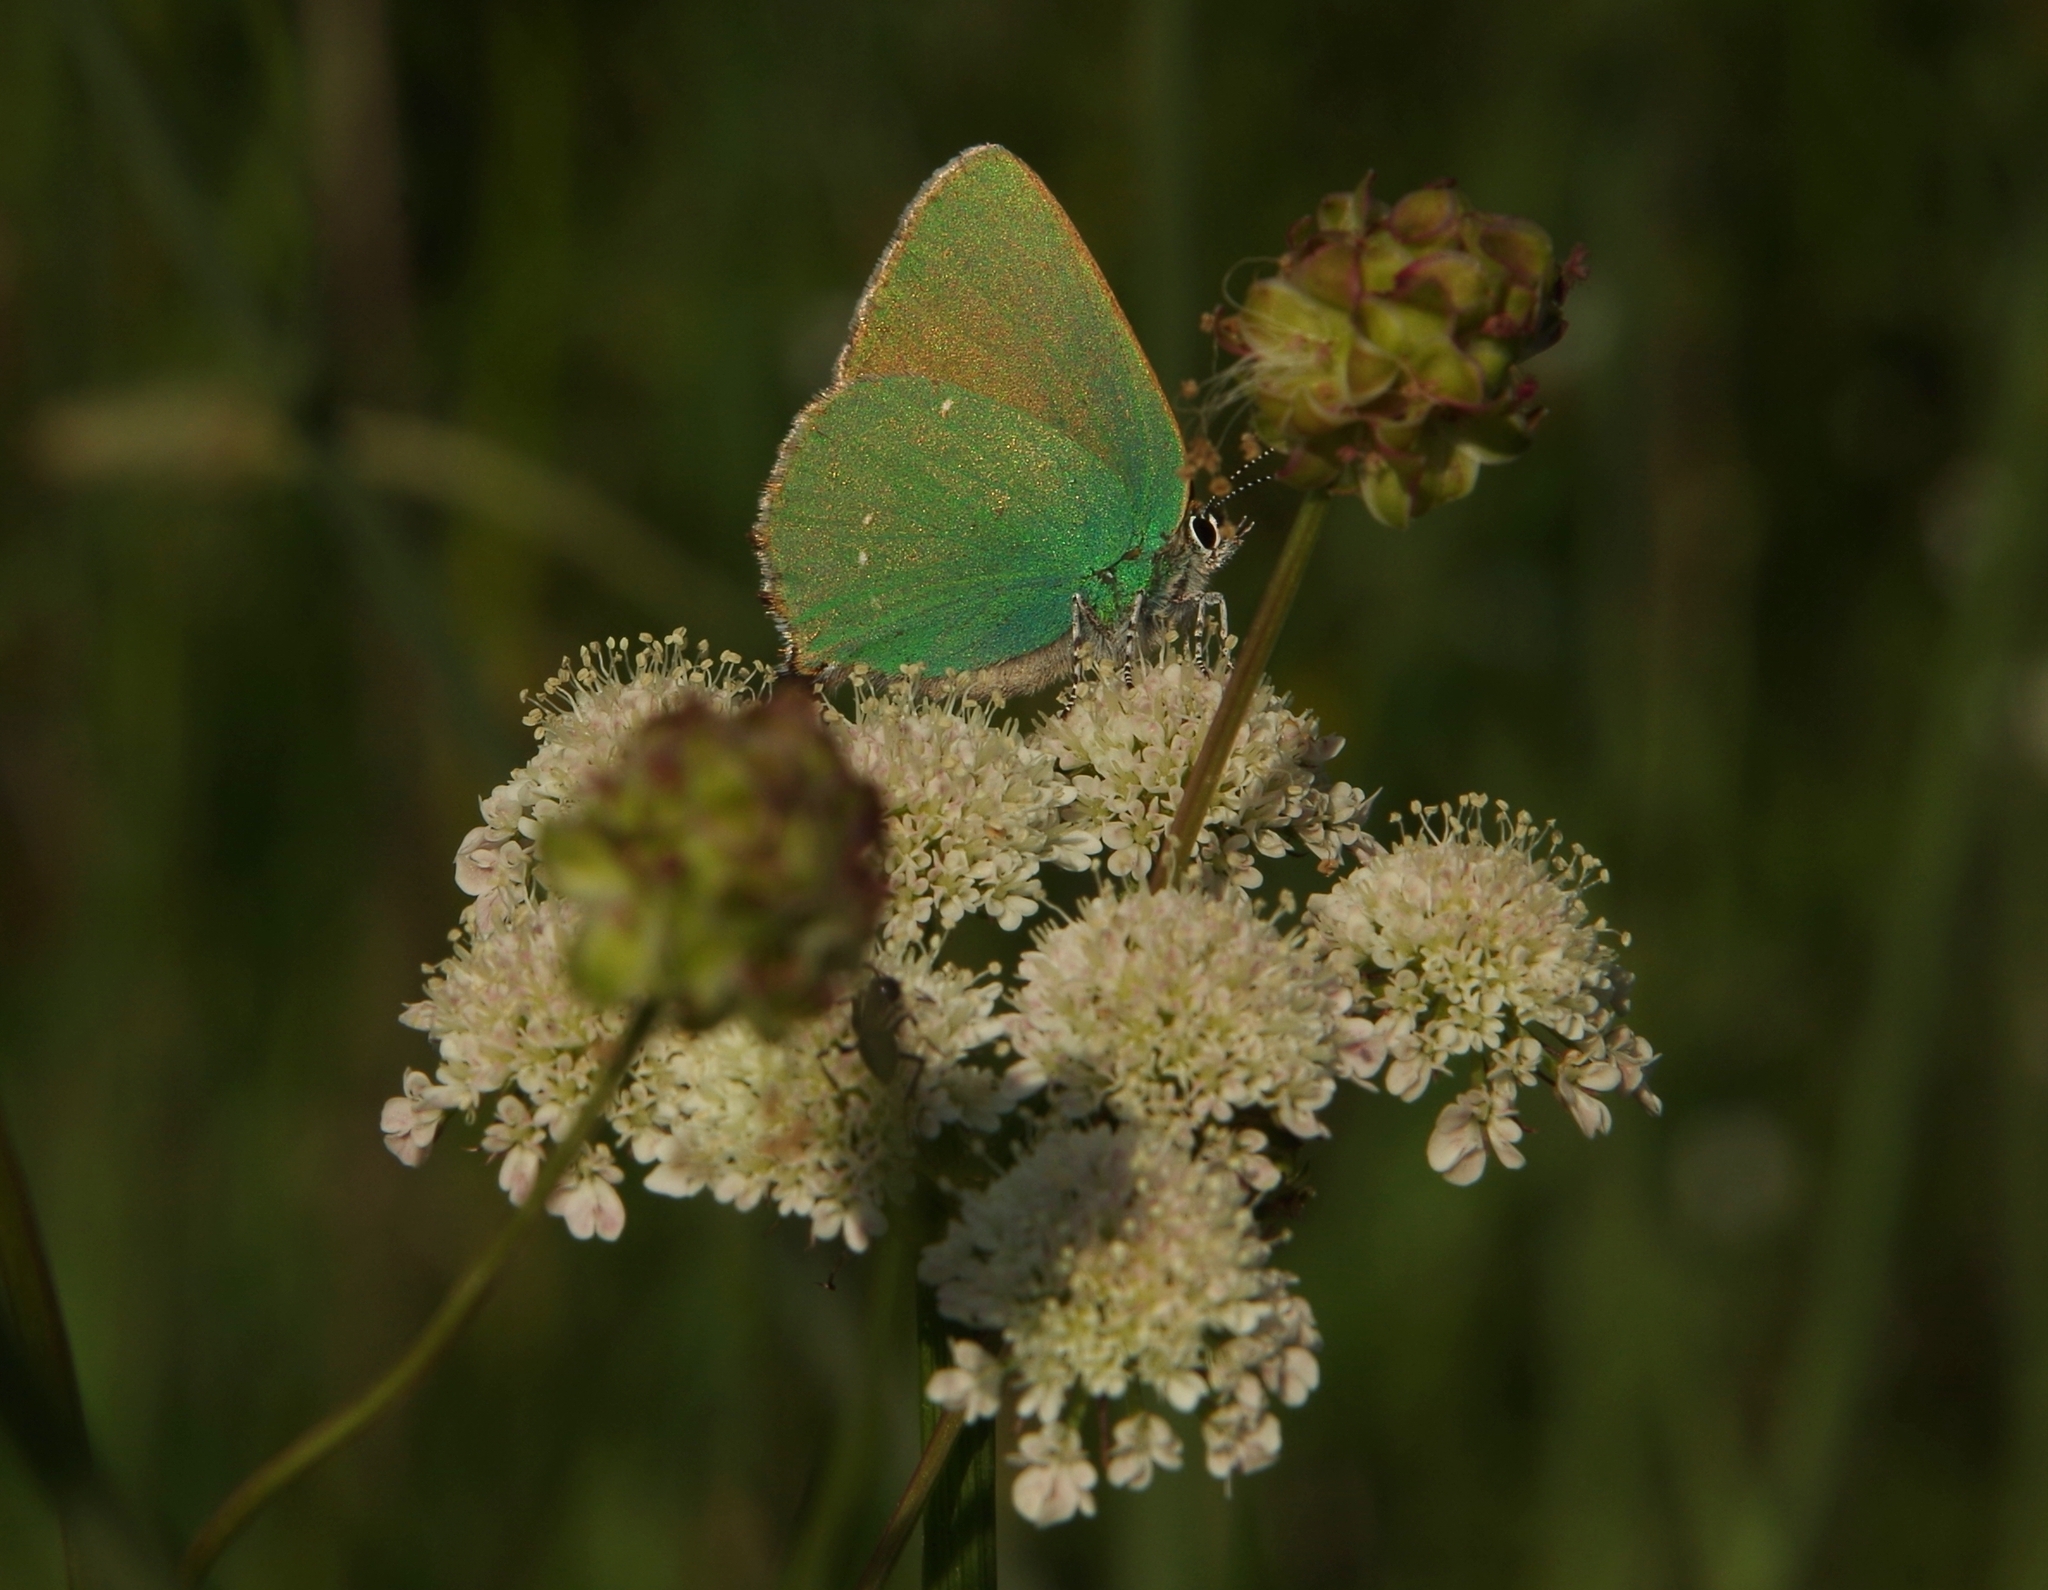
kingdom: Animalia
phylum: Arthropoda
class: Insecta
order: Lepidoptera
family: Lycaenidae
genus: Callophrys
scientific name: Callophrys rubi
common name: Green hairstreak
